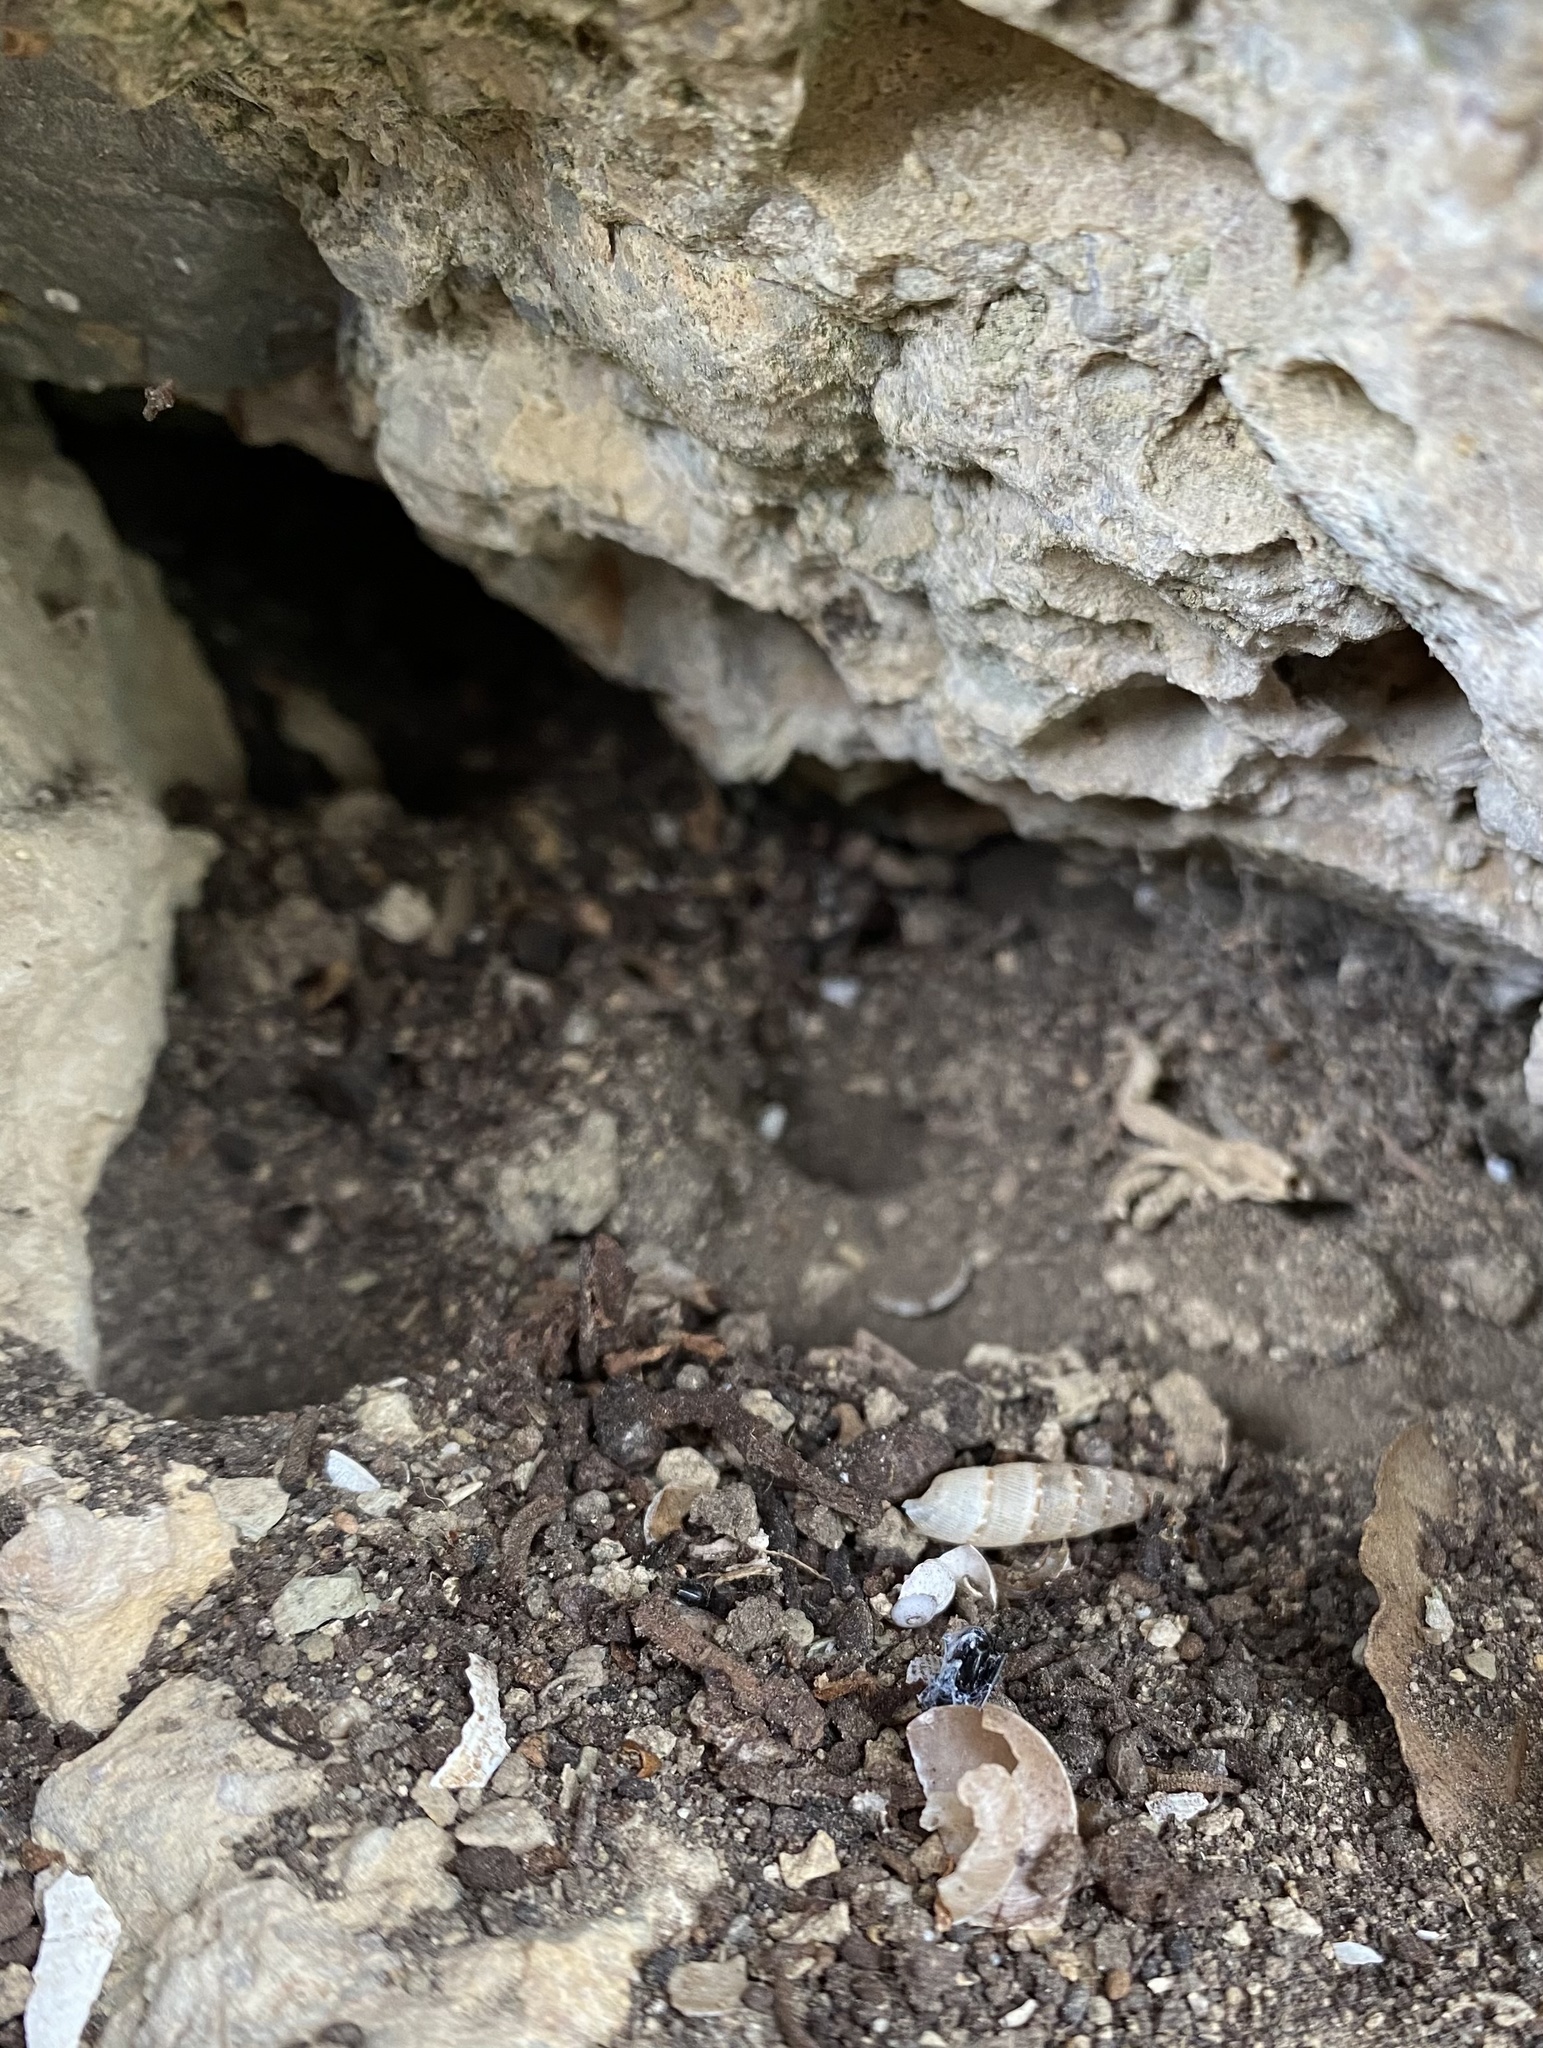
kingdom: Animalia
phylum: Mollusca
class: Gastropoda
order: Stylommatophora
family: Clausiliidae
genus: Papillifera
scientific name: Papillifera papillaris
